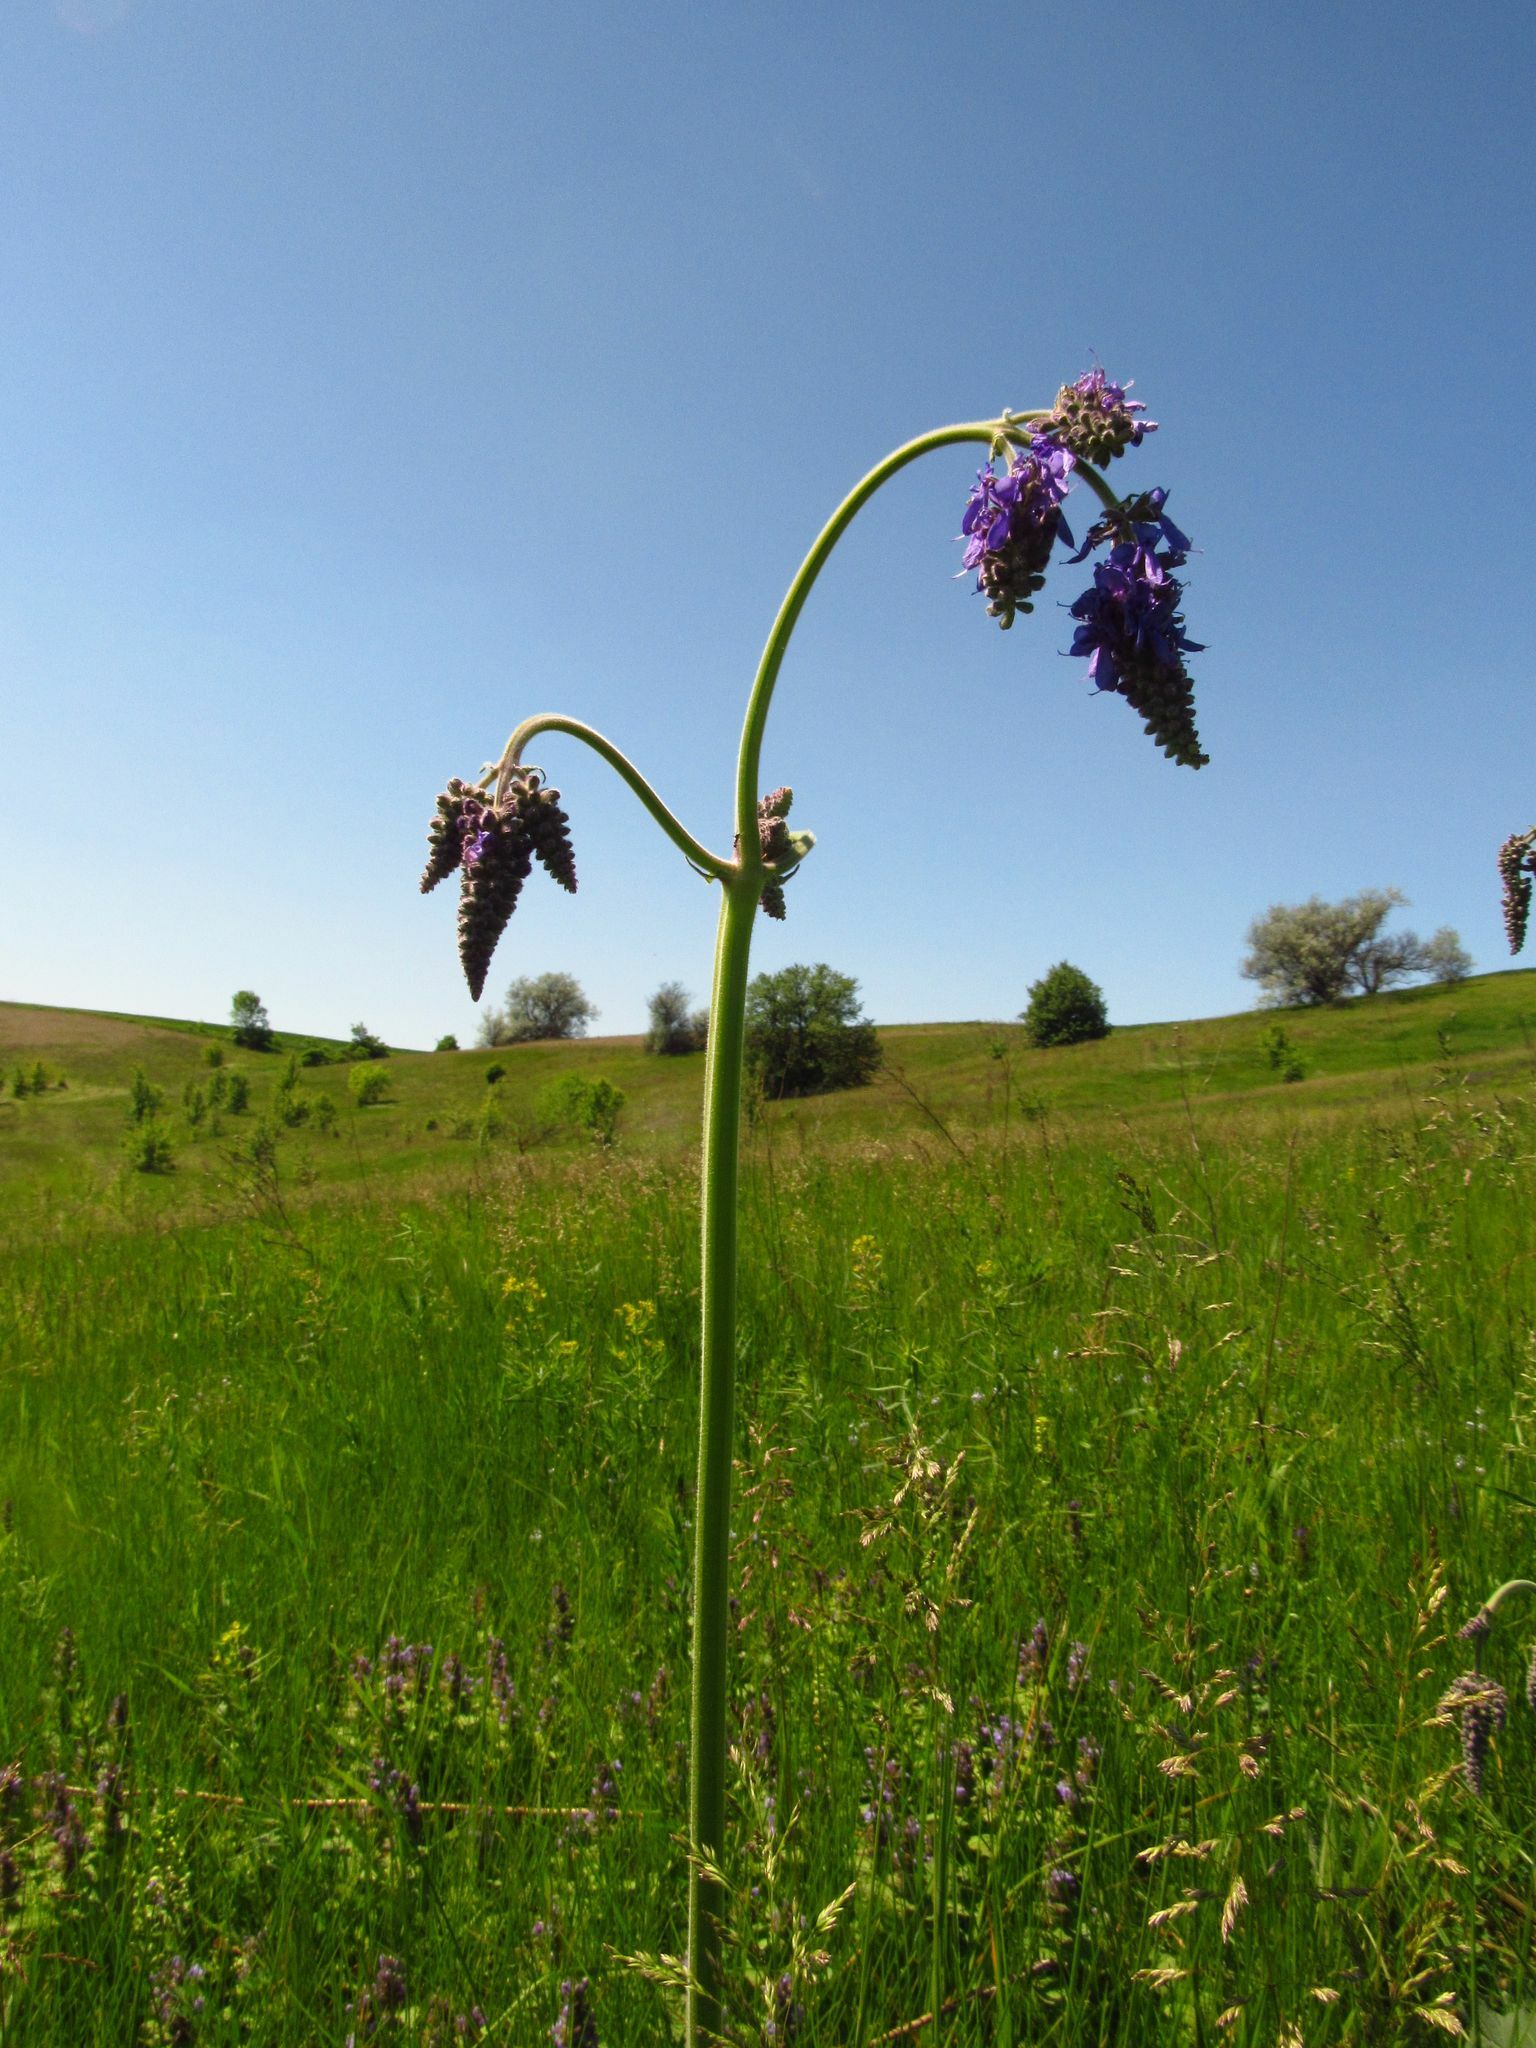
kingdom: Plantae
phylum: Tracheophyta
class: Magnoliopsida
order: Lamiales
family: Lamiaceae
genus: Salvia
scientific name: Salvia nutans
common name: Nodding sage
